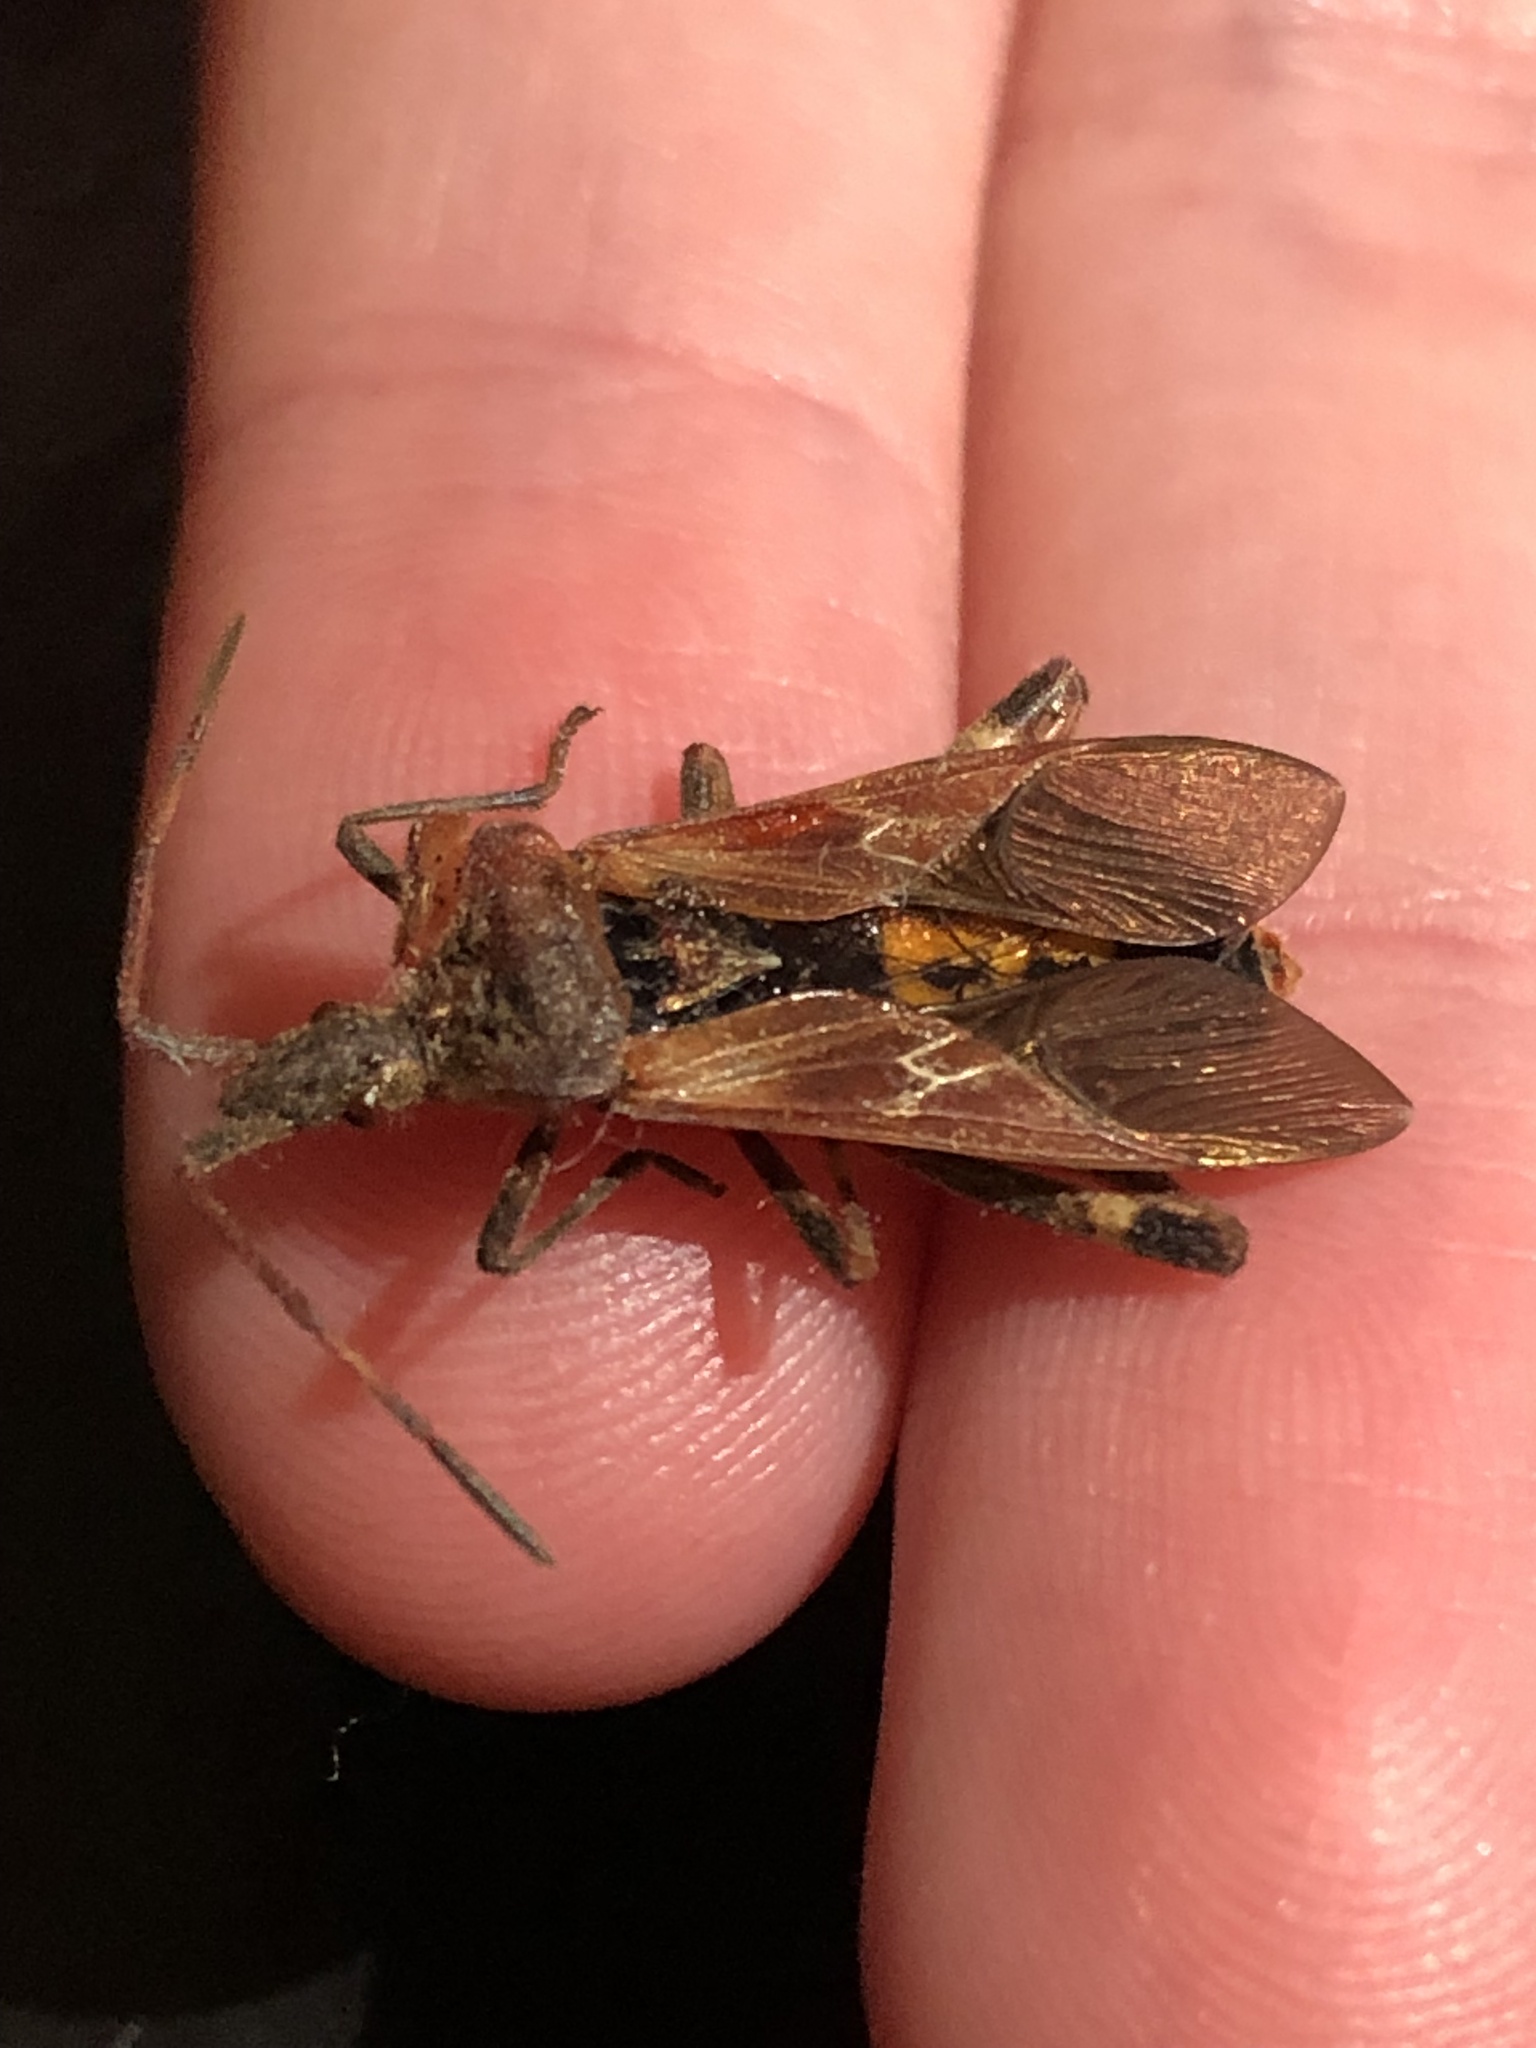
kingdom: Animalia
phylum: Arthropoda
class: Insecta
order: Hemiptera
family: Coreidae
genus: Leptoglossus
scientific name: Leptoglossus occidentalis
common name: Western conifer-seed bug
